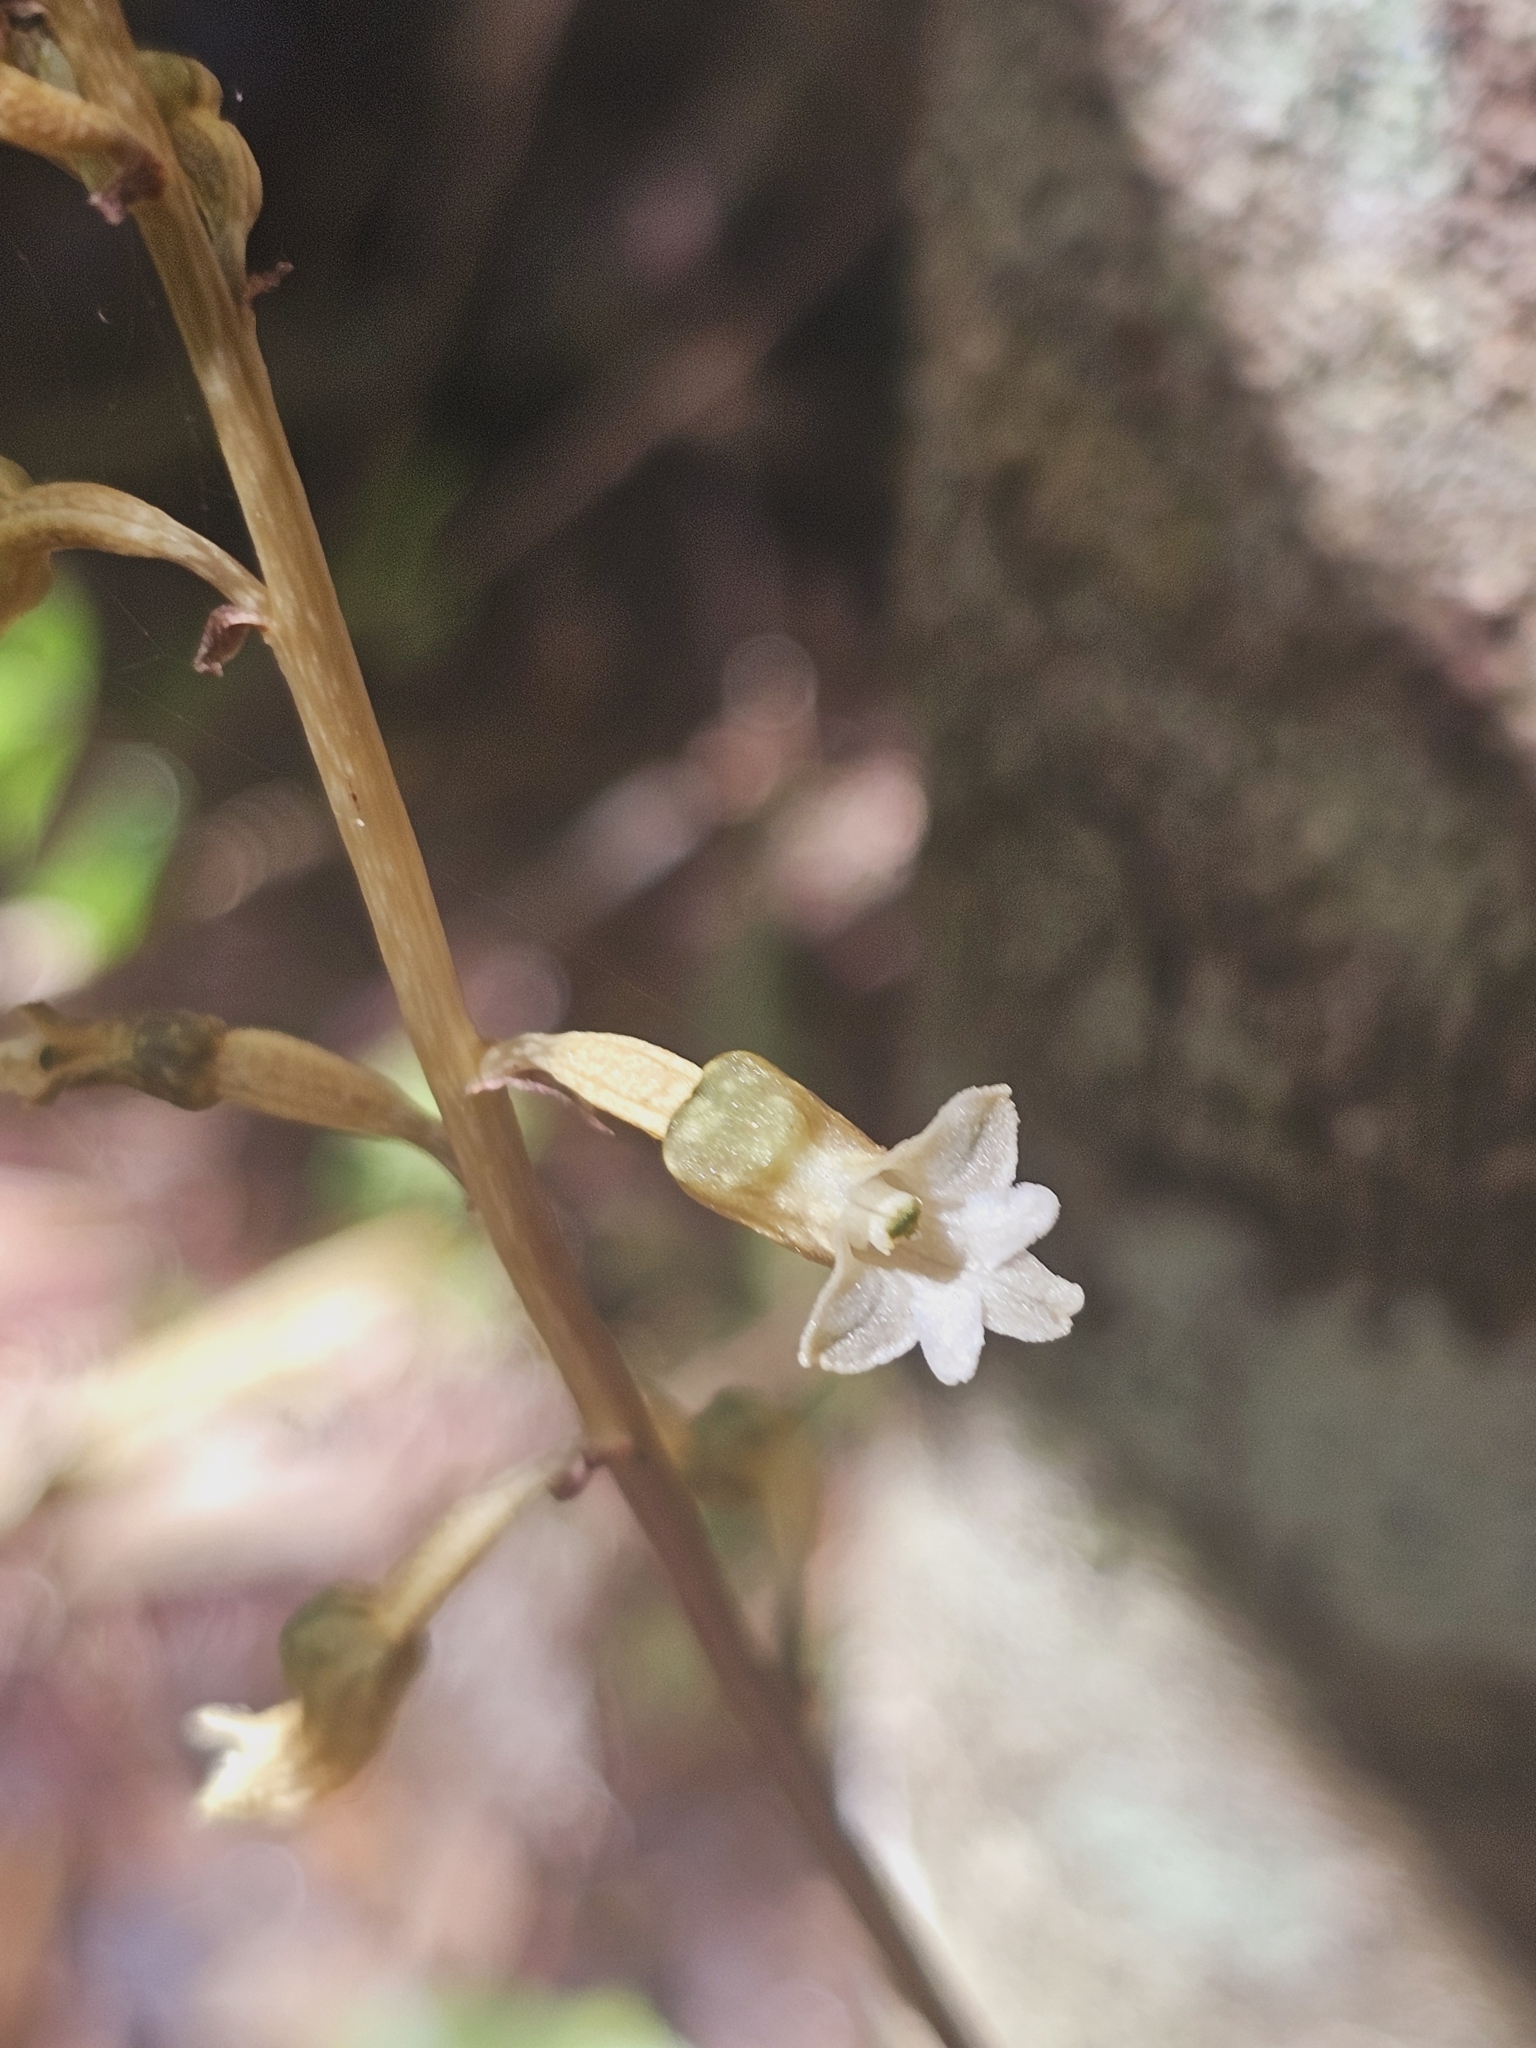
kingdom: Plantae
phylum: Tracheophyta
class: Liliopsida
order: Asparagales
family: Orchidaceae
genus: Gastrodia
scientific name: Gastrodia cunninghamii
